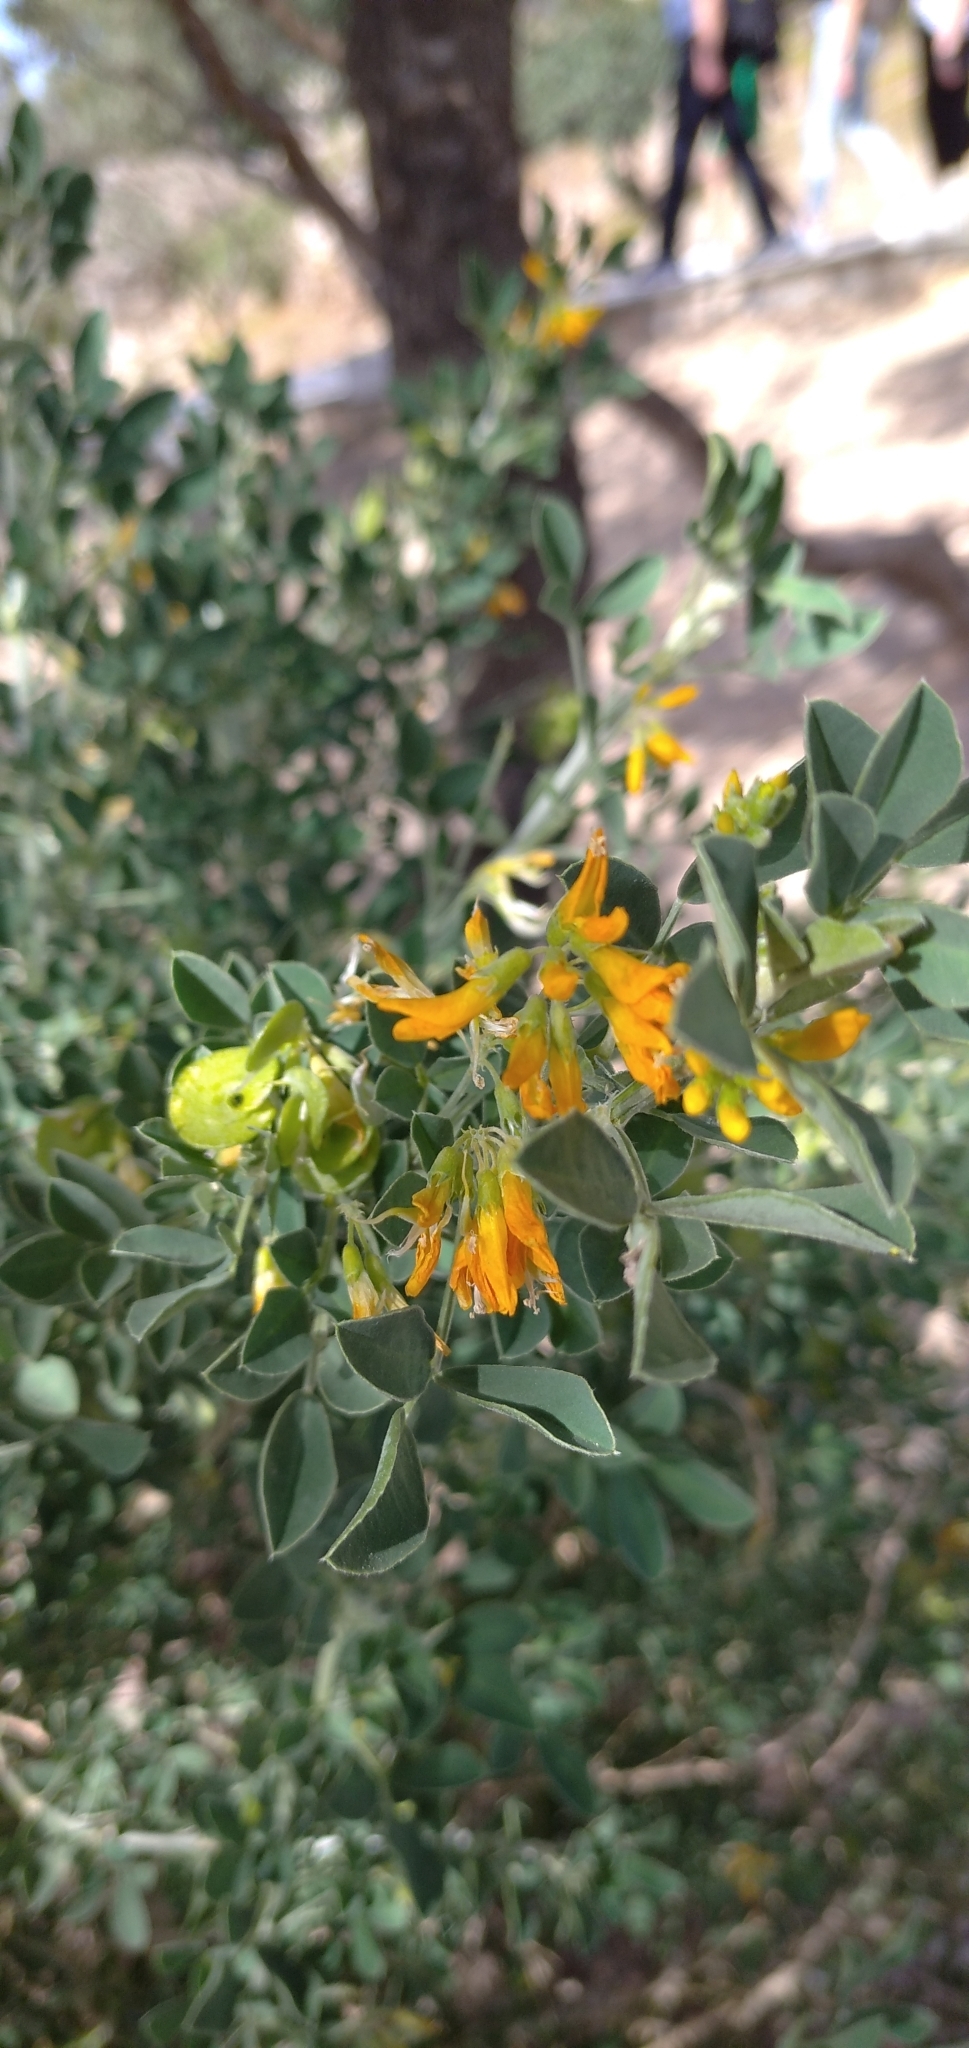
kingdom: Plantae
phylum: Tracheophyta
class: Magnoliopsida
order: Fabales
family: Fabaceae
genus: Medicago
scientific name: Medicago arborea
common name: Moon trefoil
